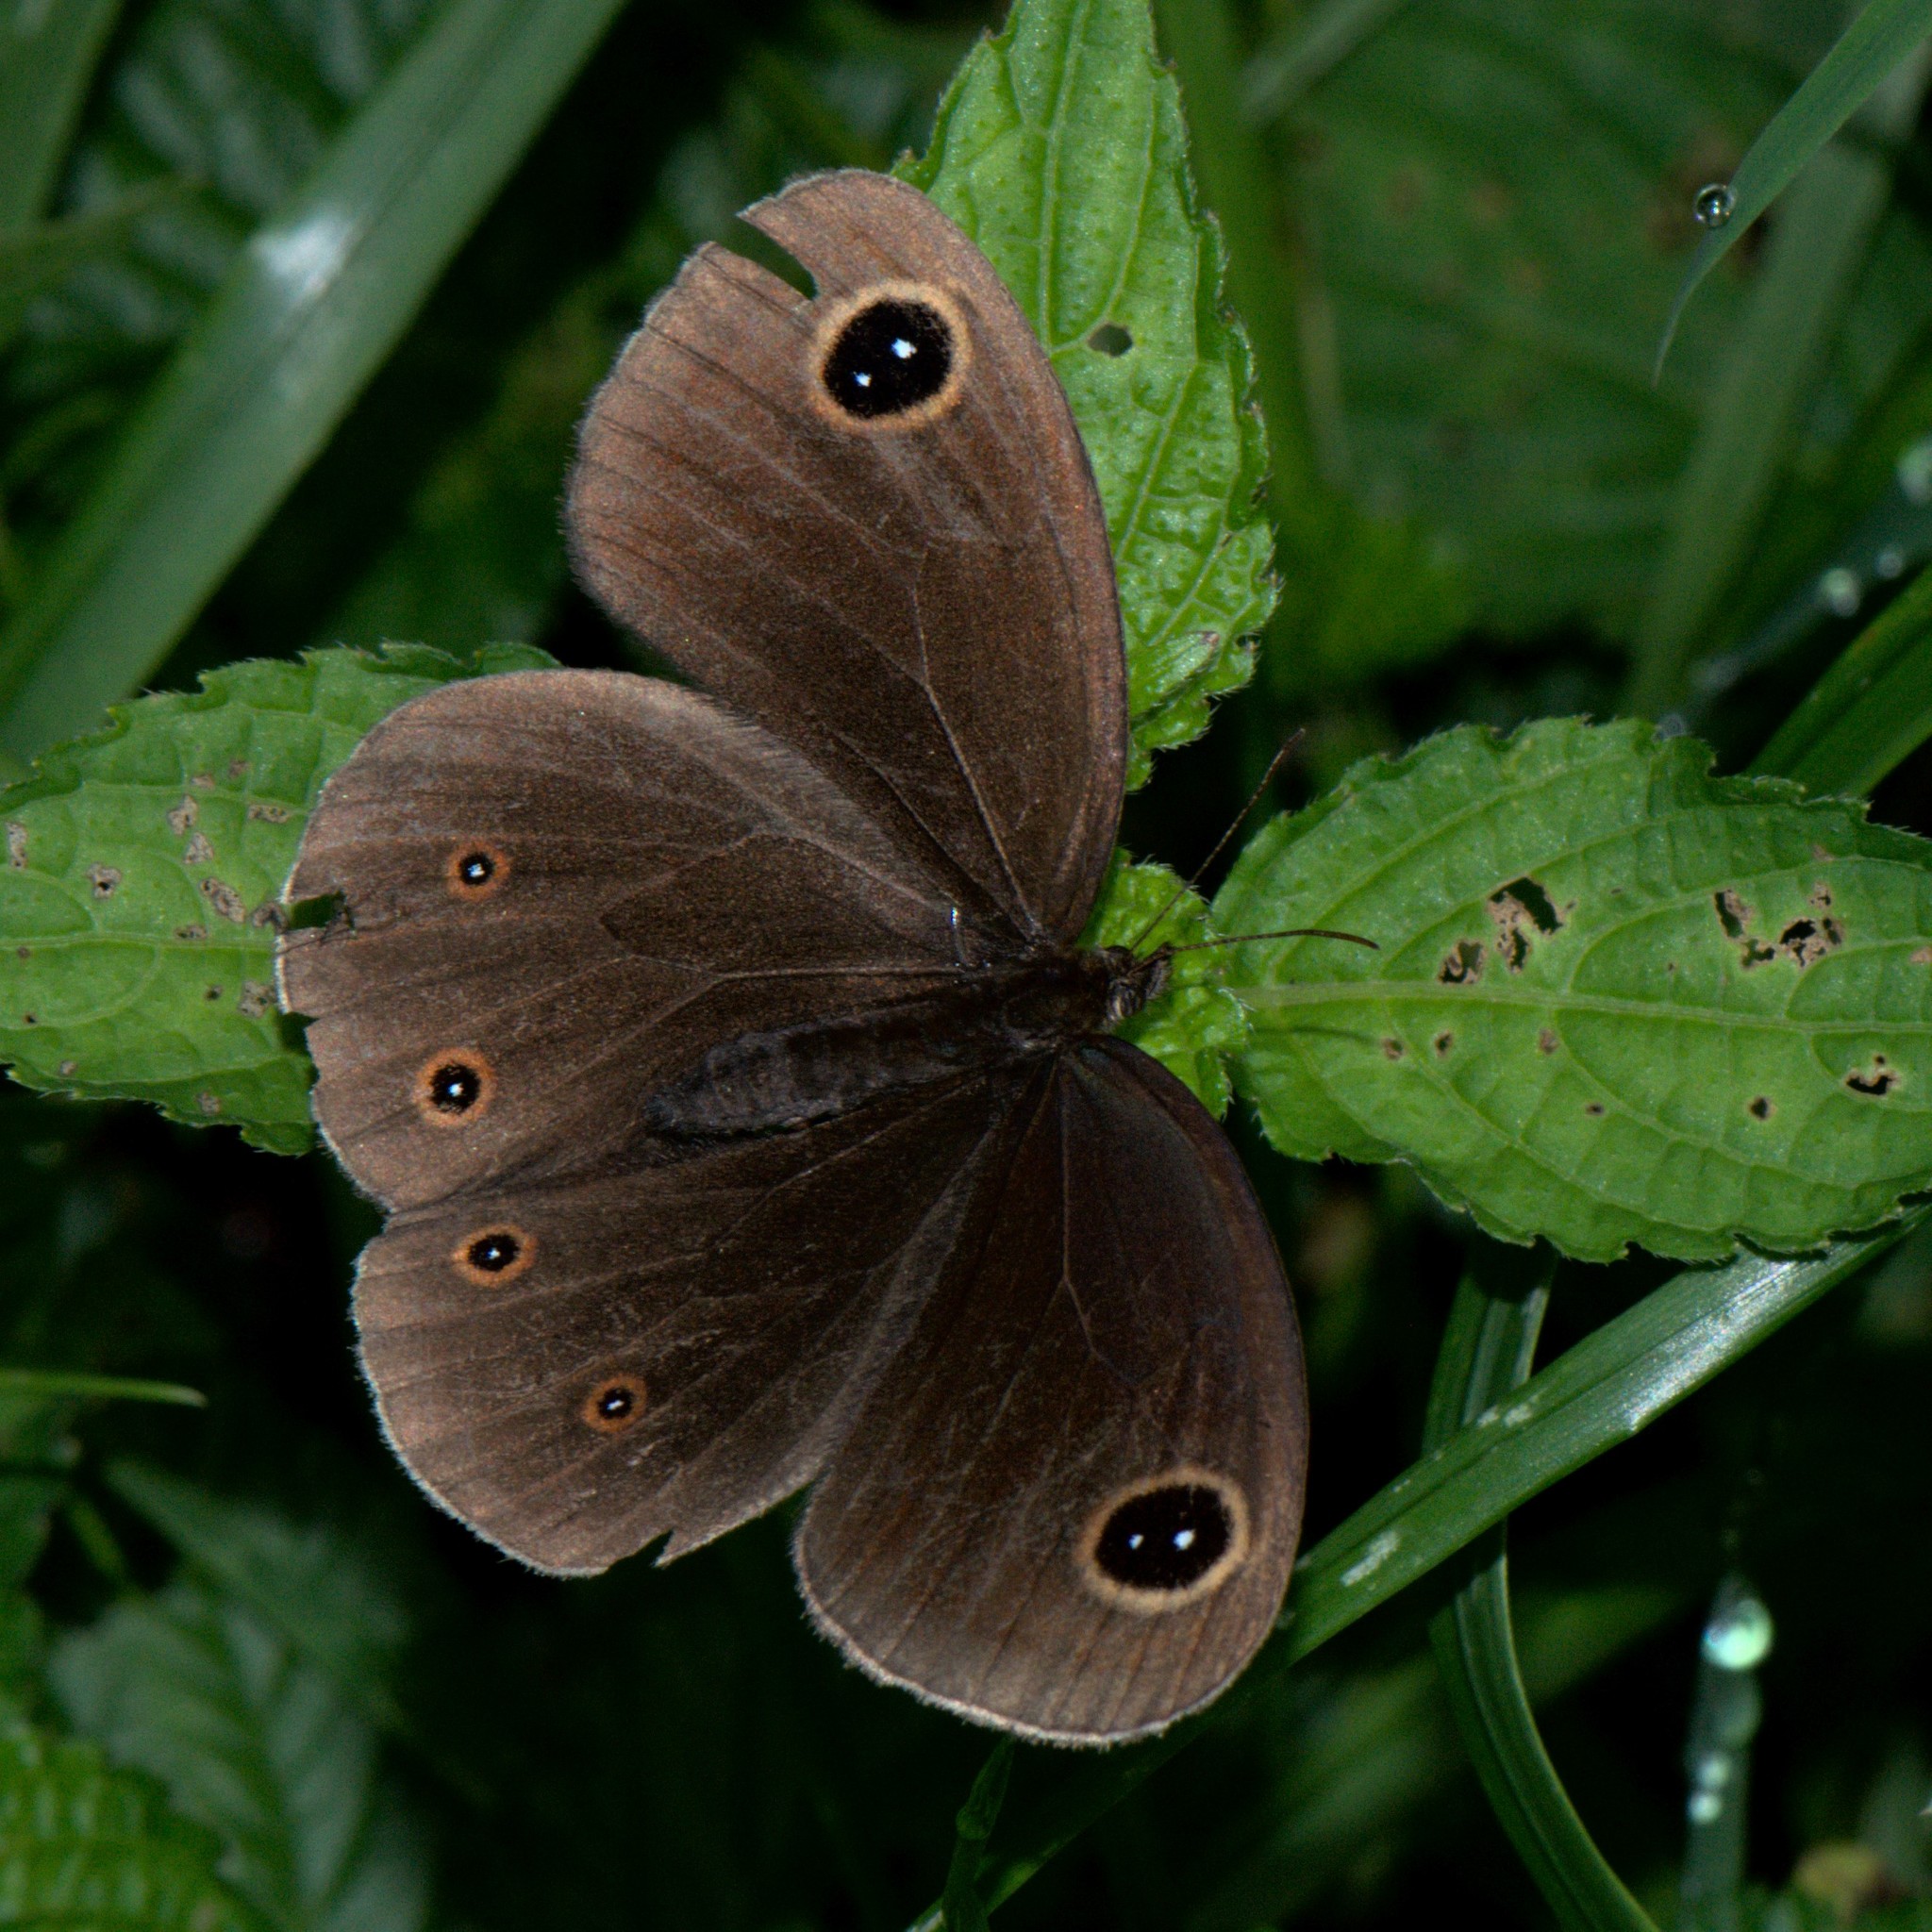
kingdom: Animalia
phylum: Arthropoda
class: Insecta
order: Lepidoptera
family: Nymphalidae
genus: Callerebia
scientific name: Callerebia nirmala
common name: Common argus
